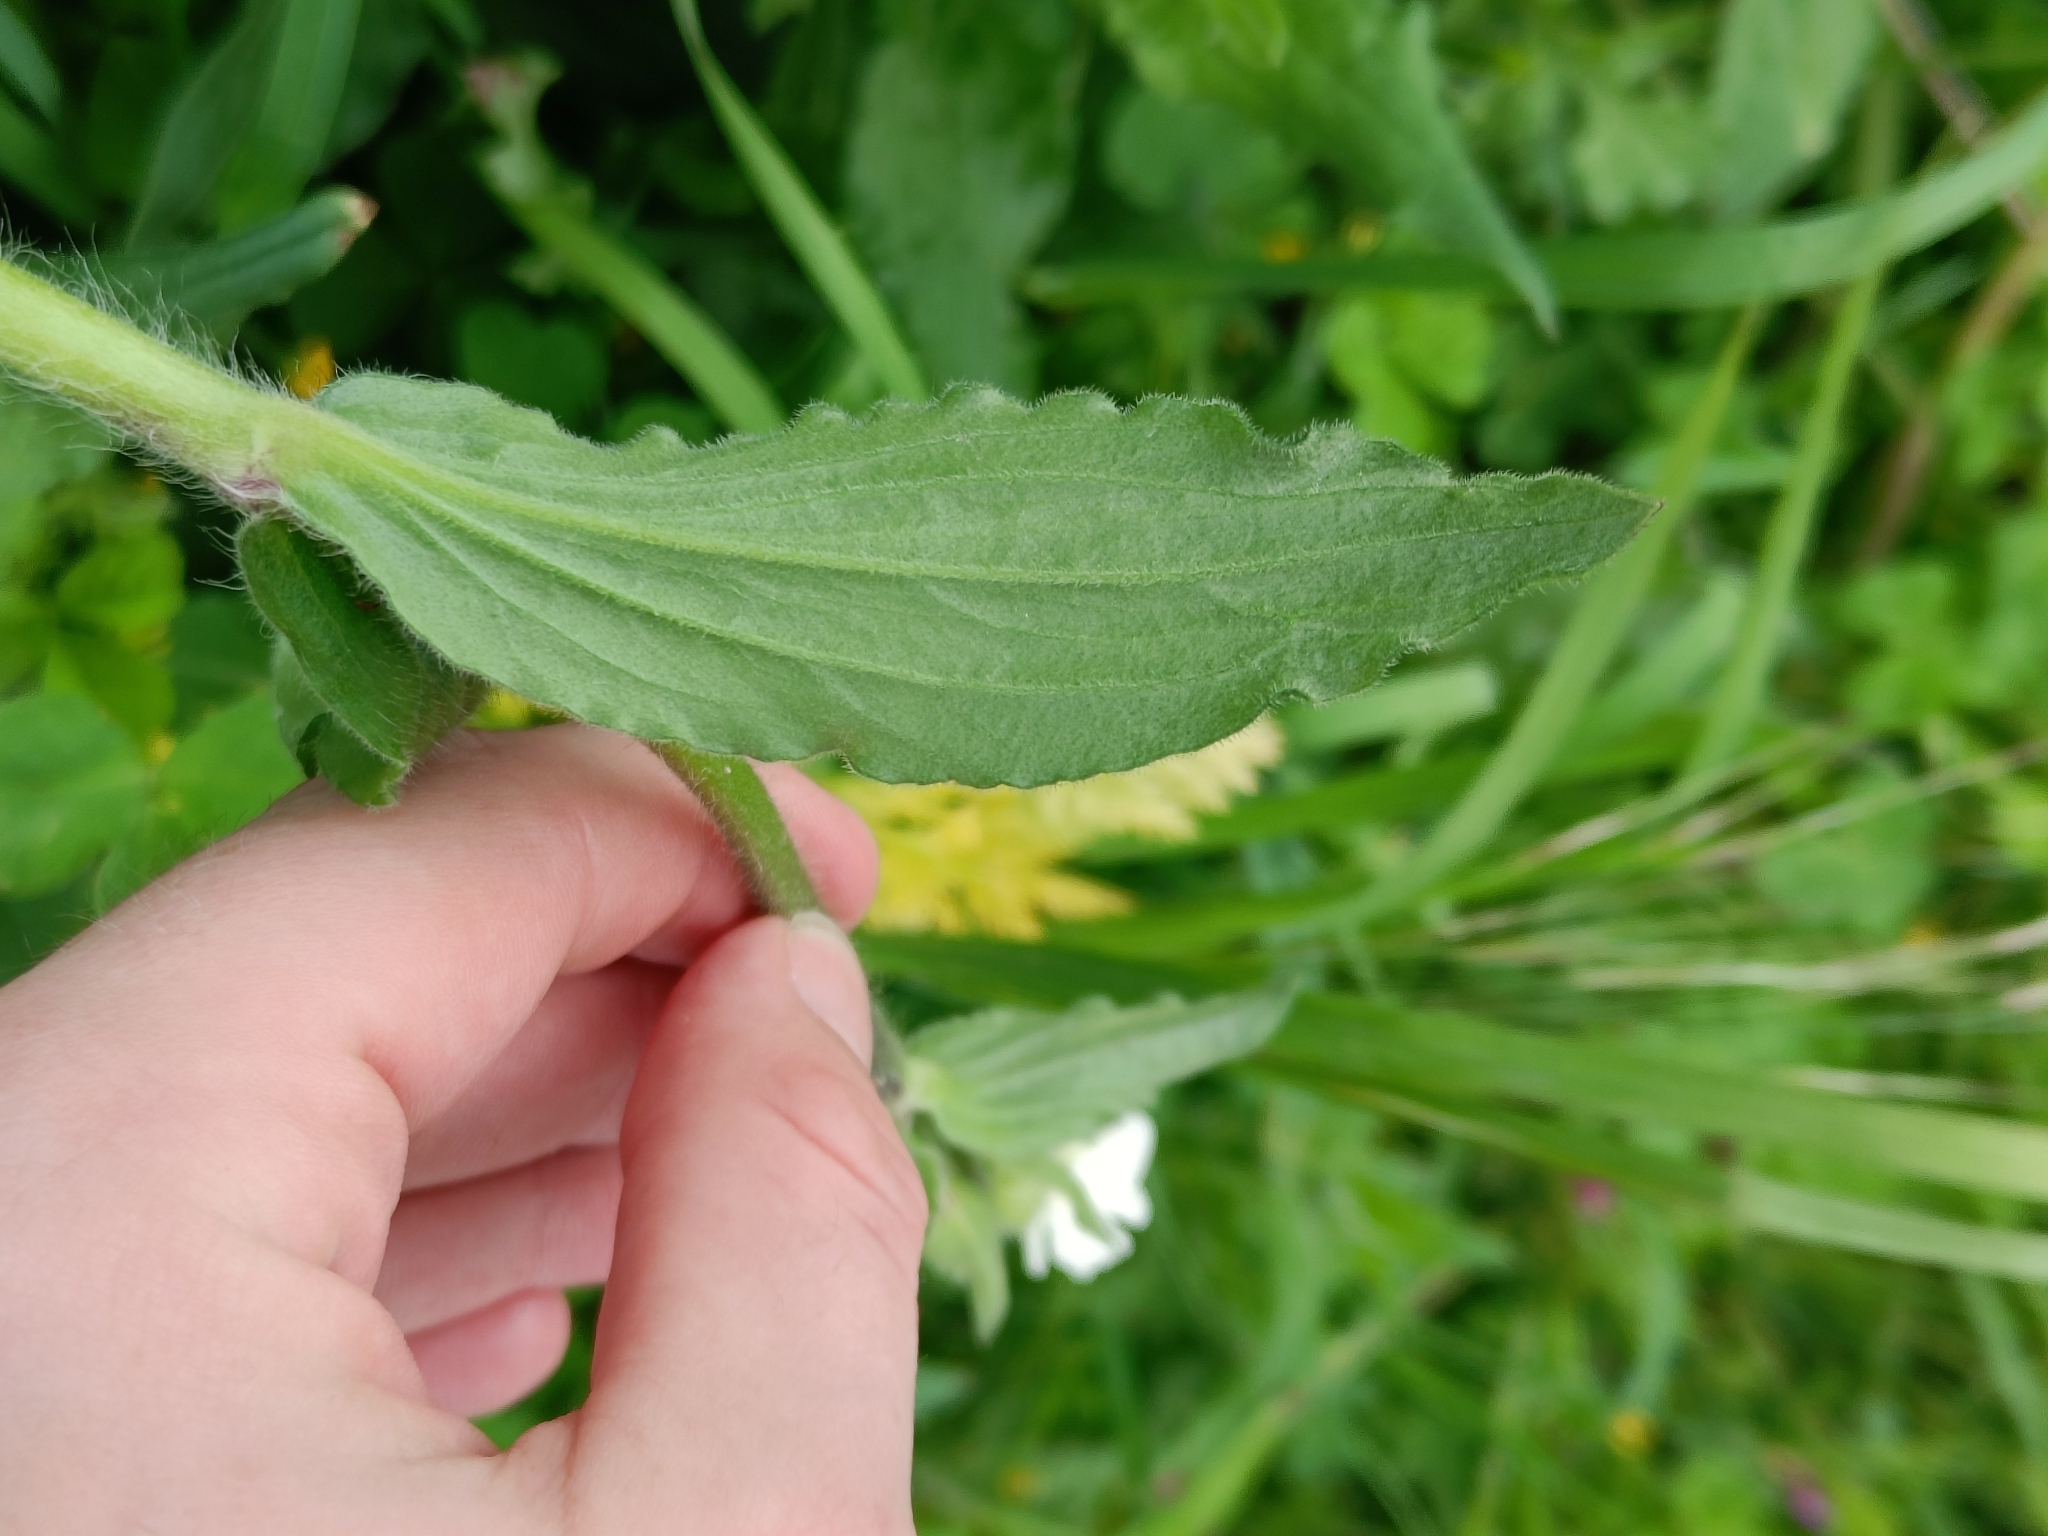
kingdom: Plantae
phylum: Tracheophyta
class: Magnoliopsida
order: Caryophyllales
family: Caryophyllaceae
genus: Silene
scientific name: Silene latifolia
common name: White campion
